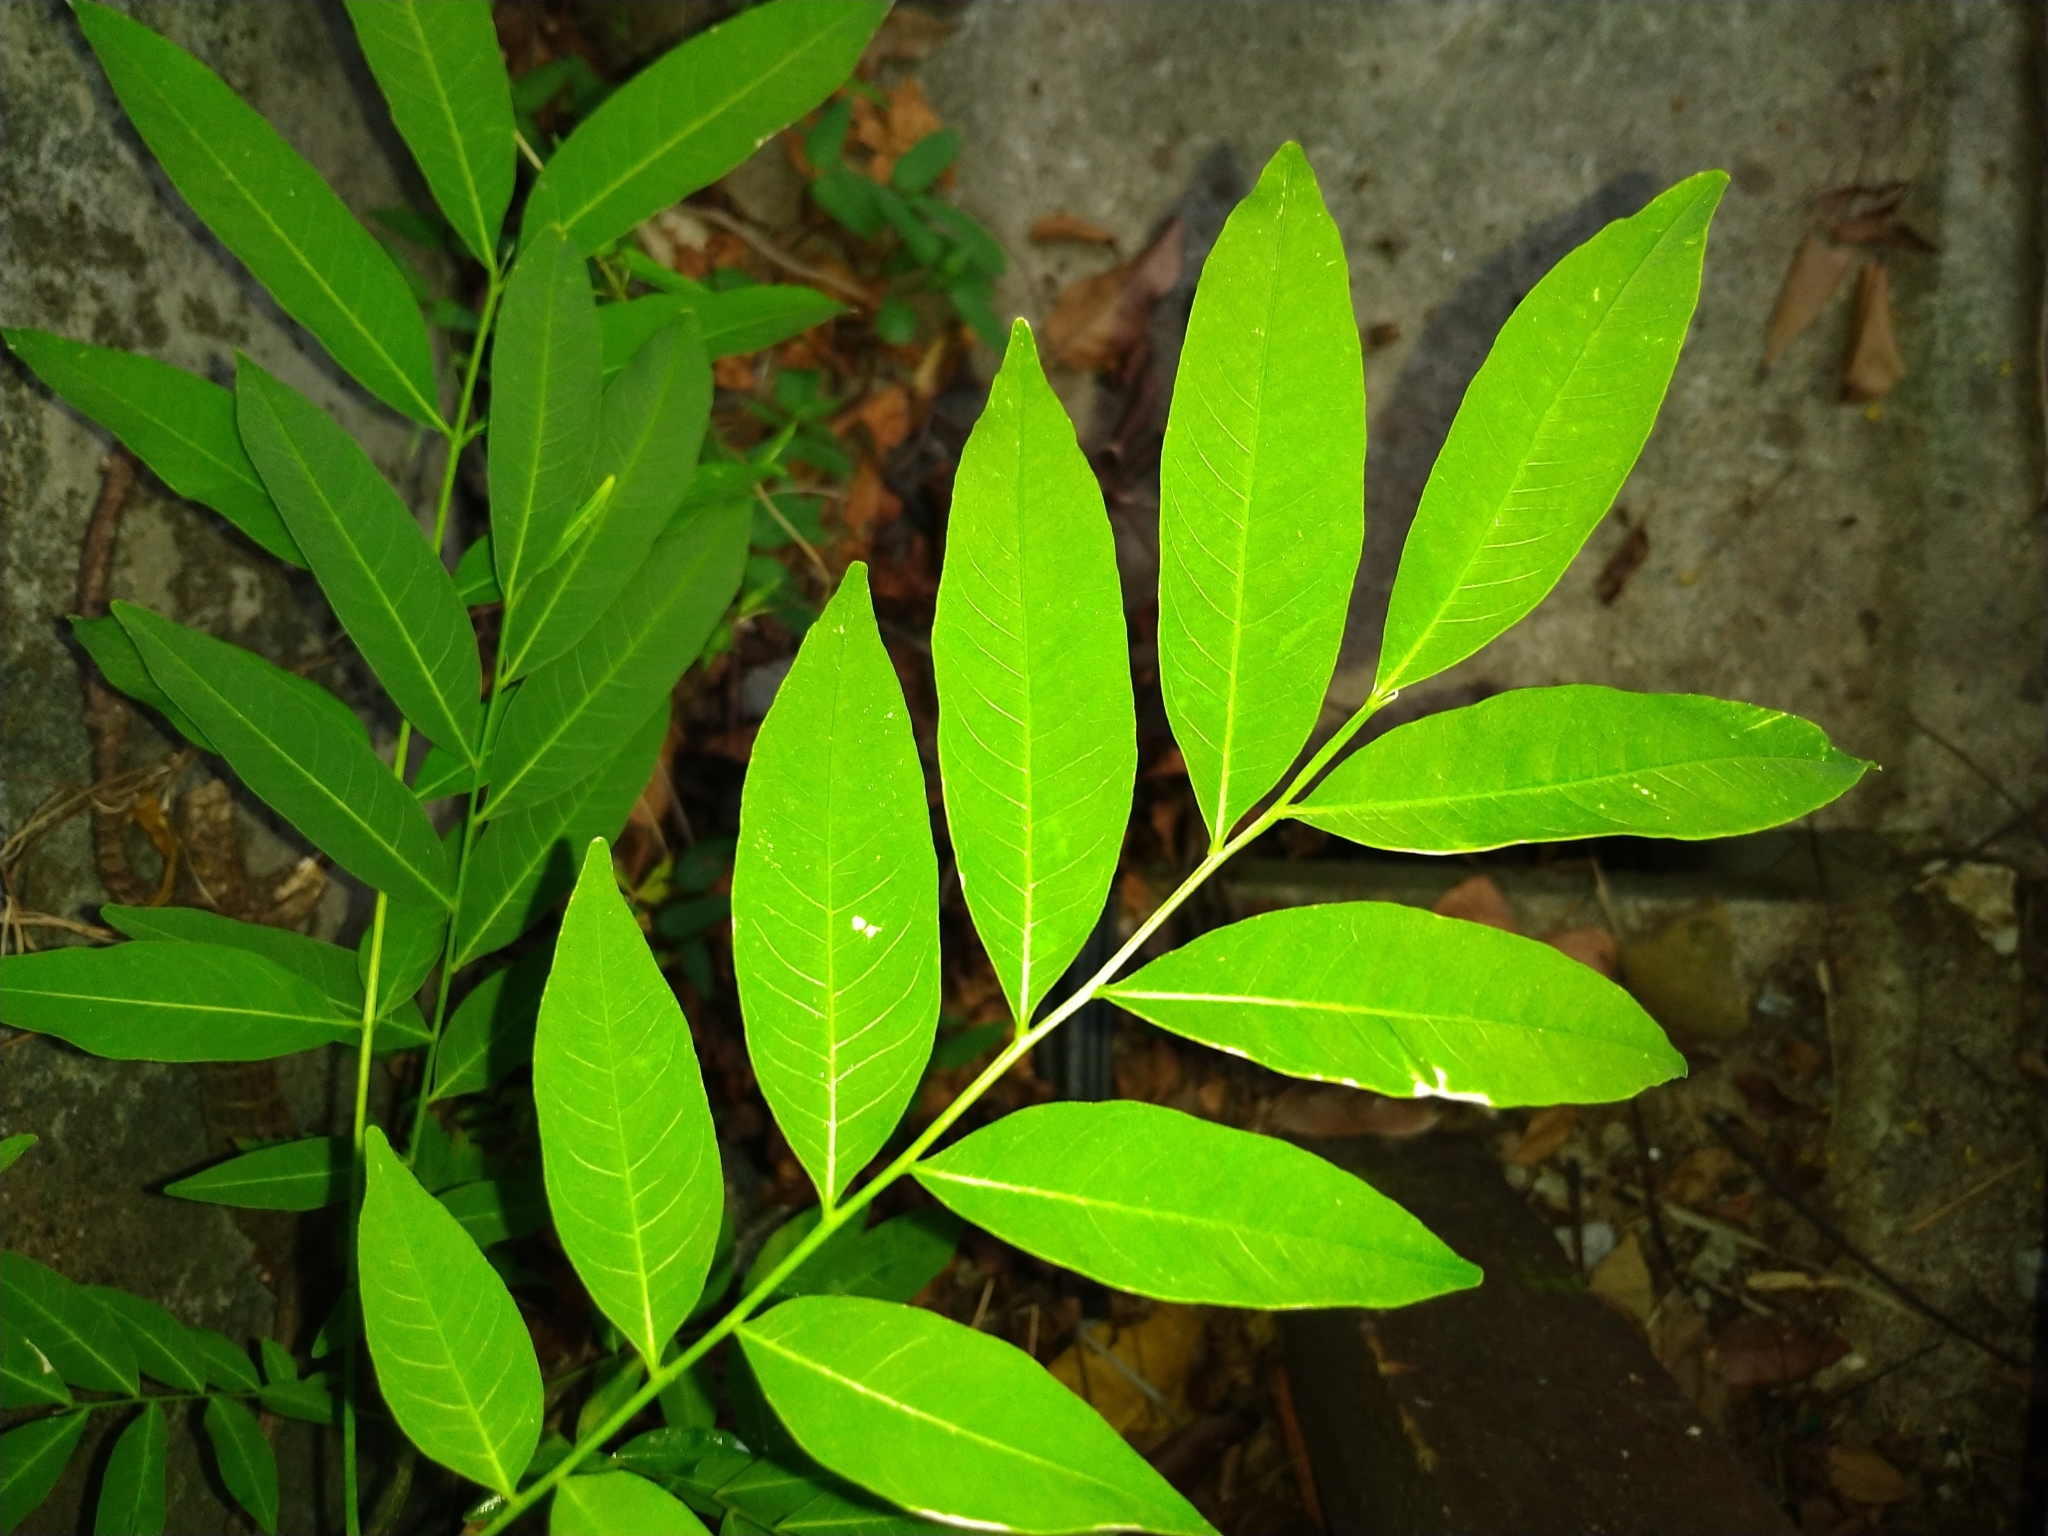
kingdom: Plantae
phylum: Tracheophyta
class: Magnoliopsida
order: Sapindales
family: Sapindaceae
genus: Sapindus
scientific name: Sapindus mukorossi
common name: Chinese soapberry
